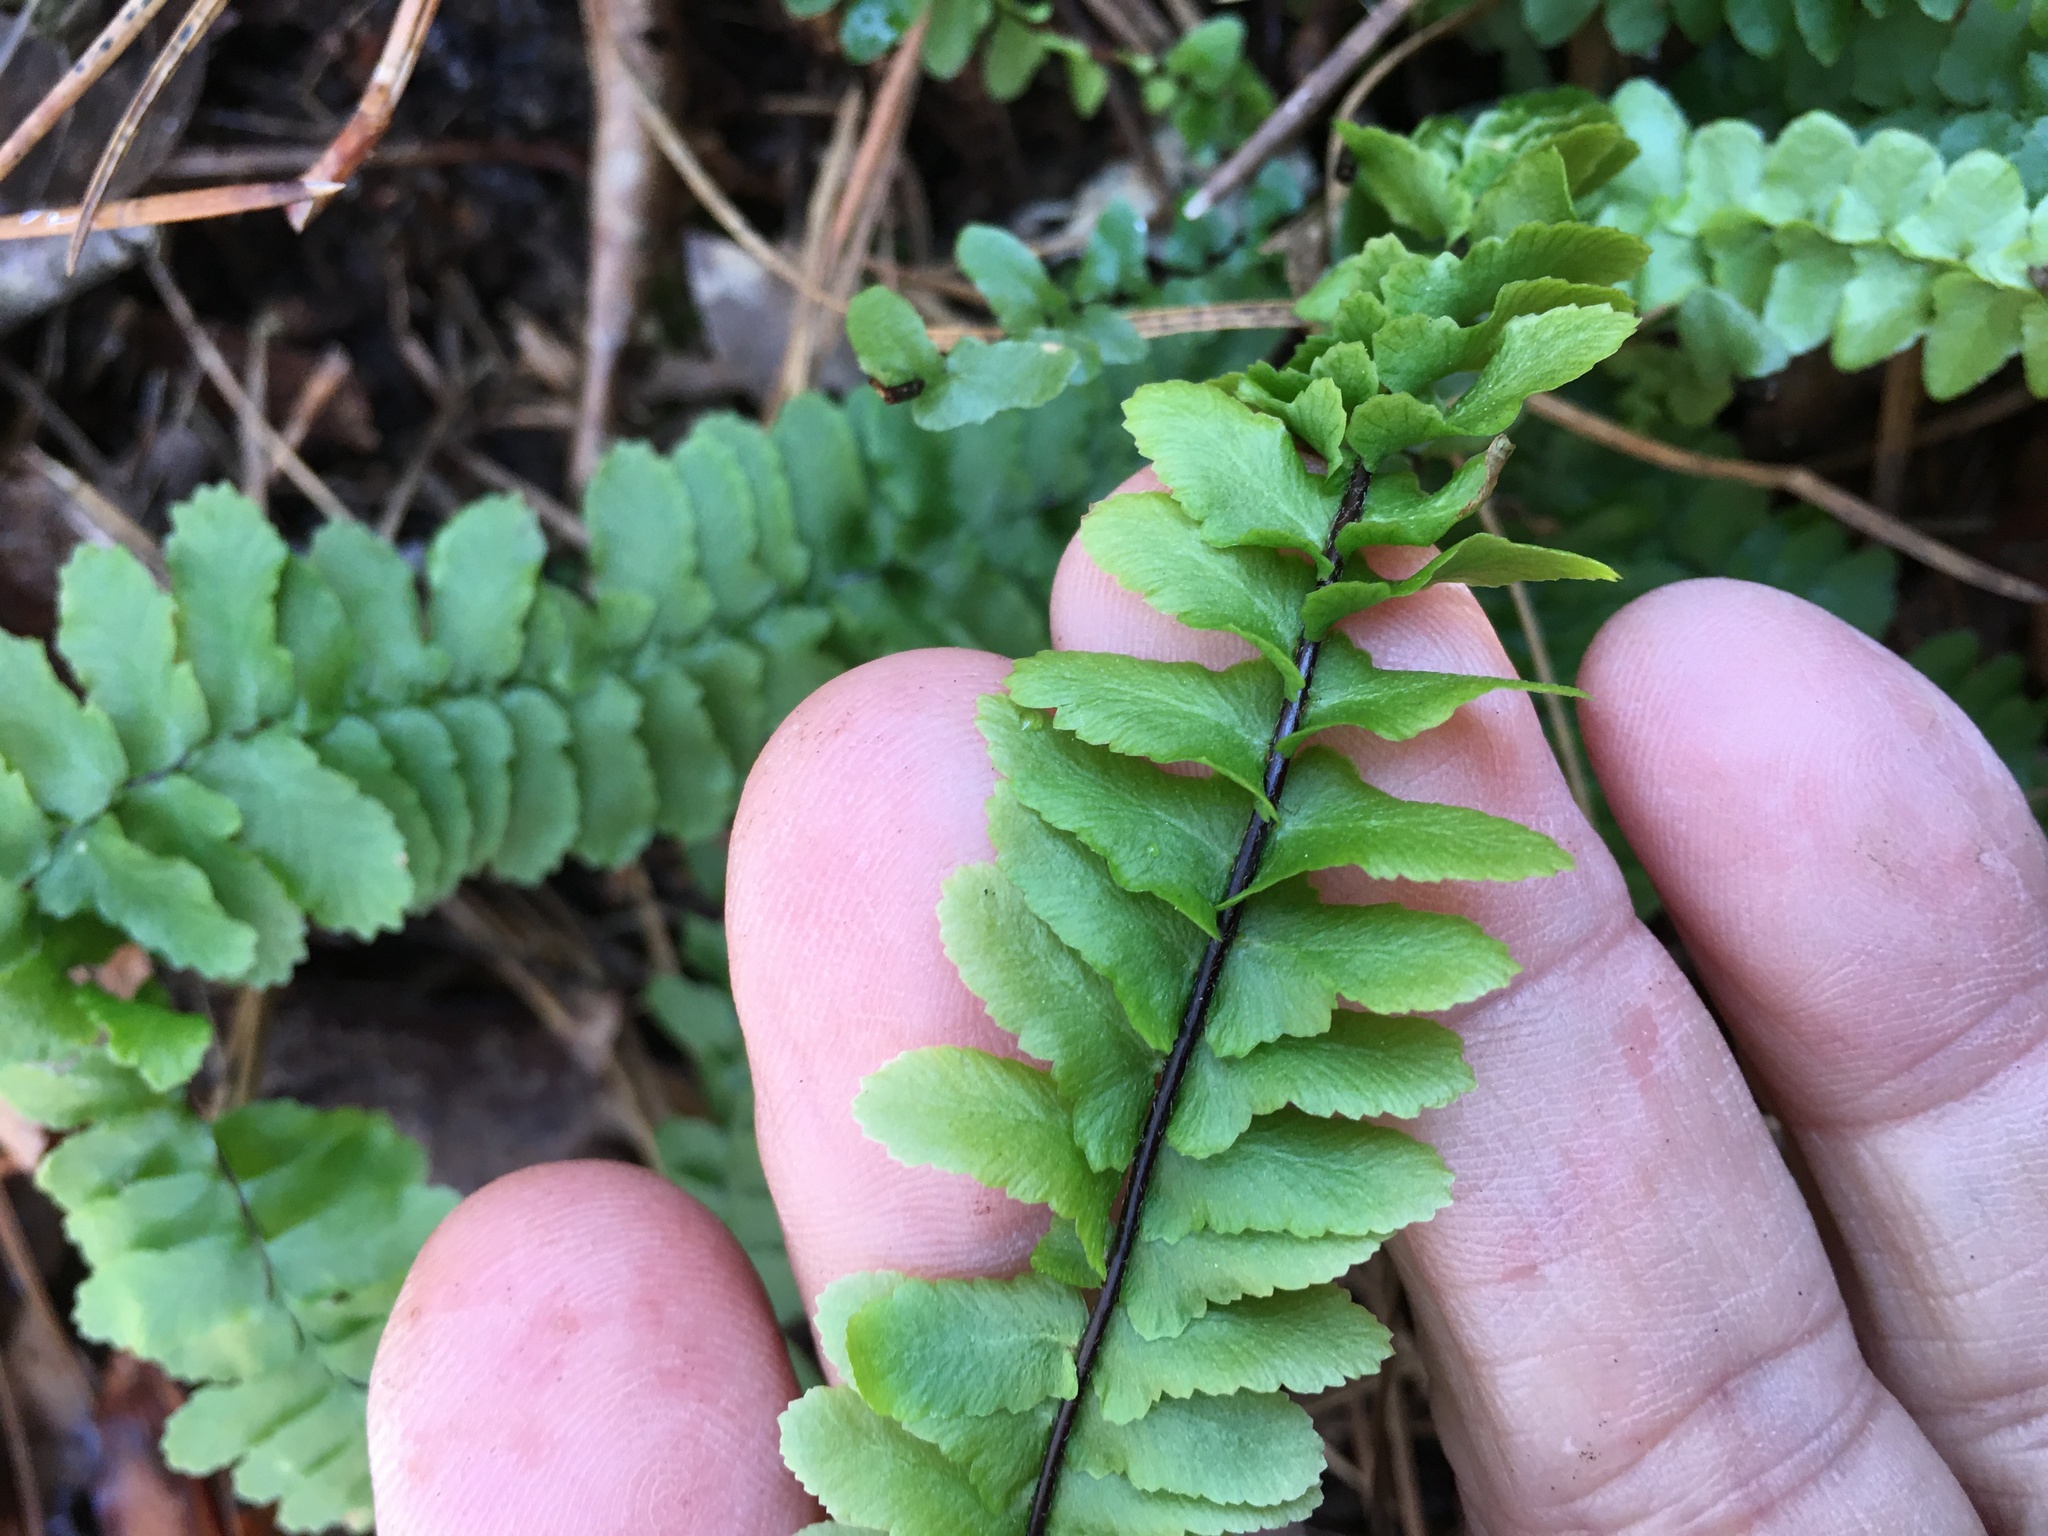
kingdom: Plantae
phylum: Tracheophyta
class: Polypodiopsida
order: Polypodiales
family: Aspleniaceae
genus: Asplenium
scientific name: Asplenium platyneuron
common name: Ebony spleenwort
